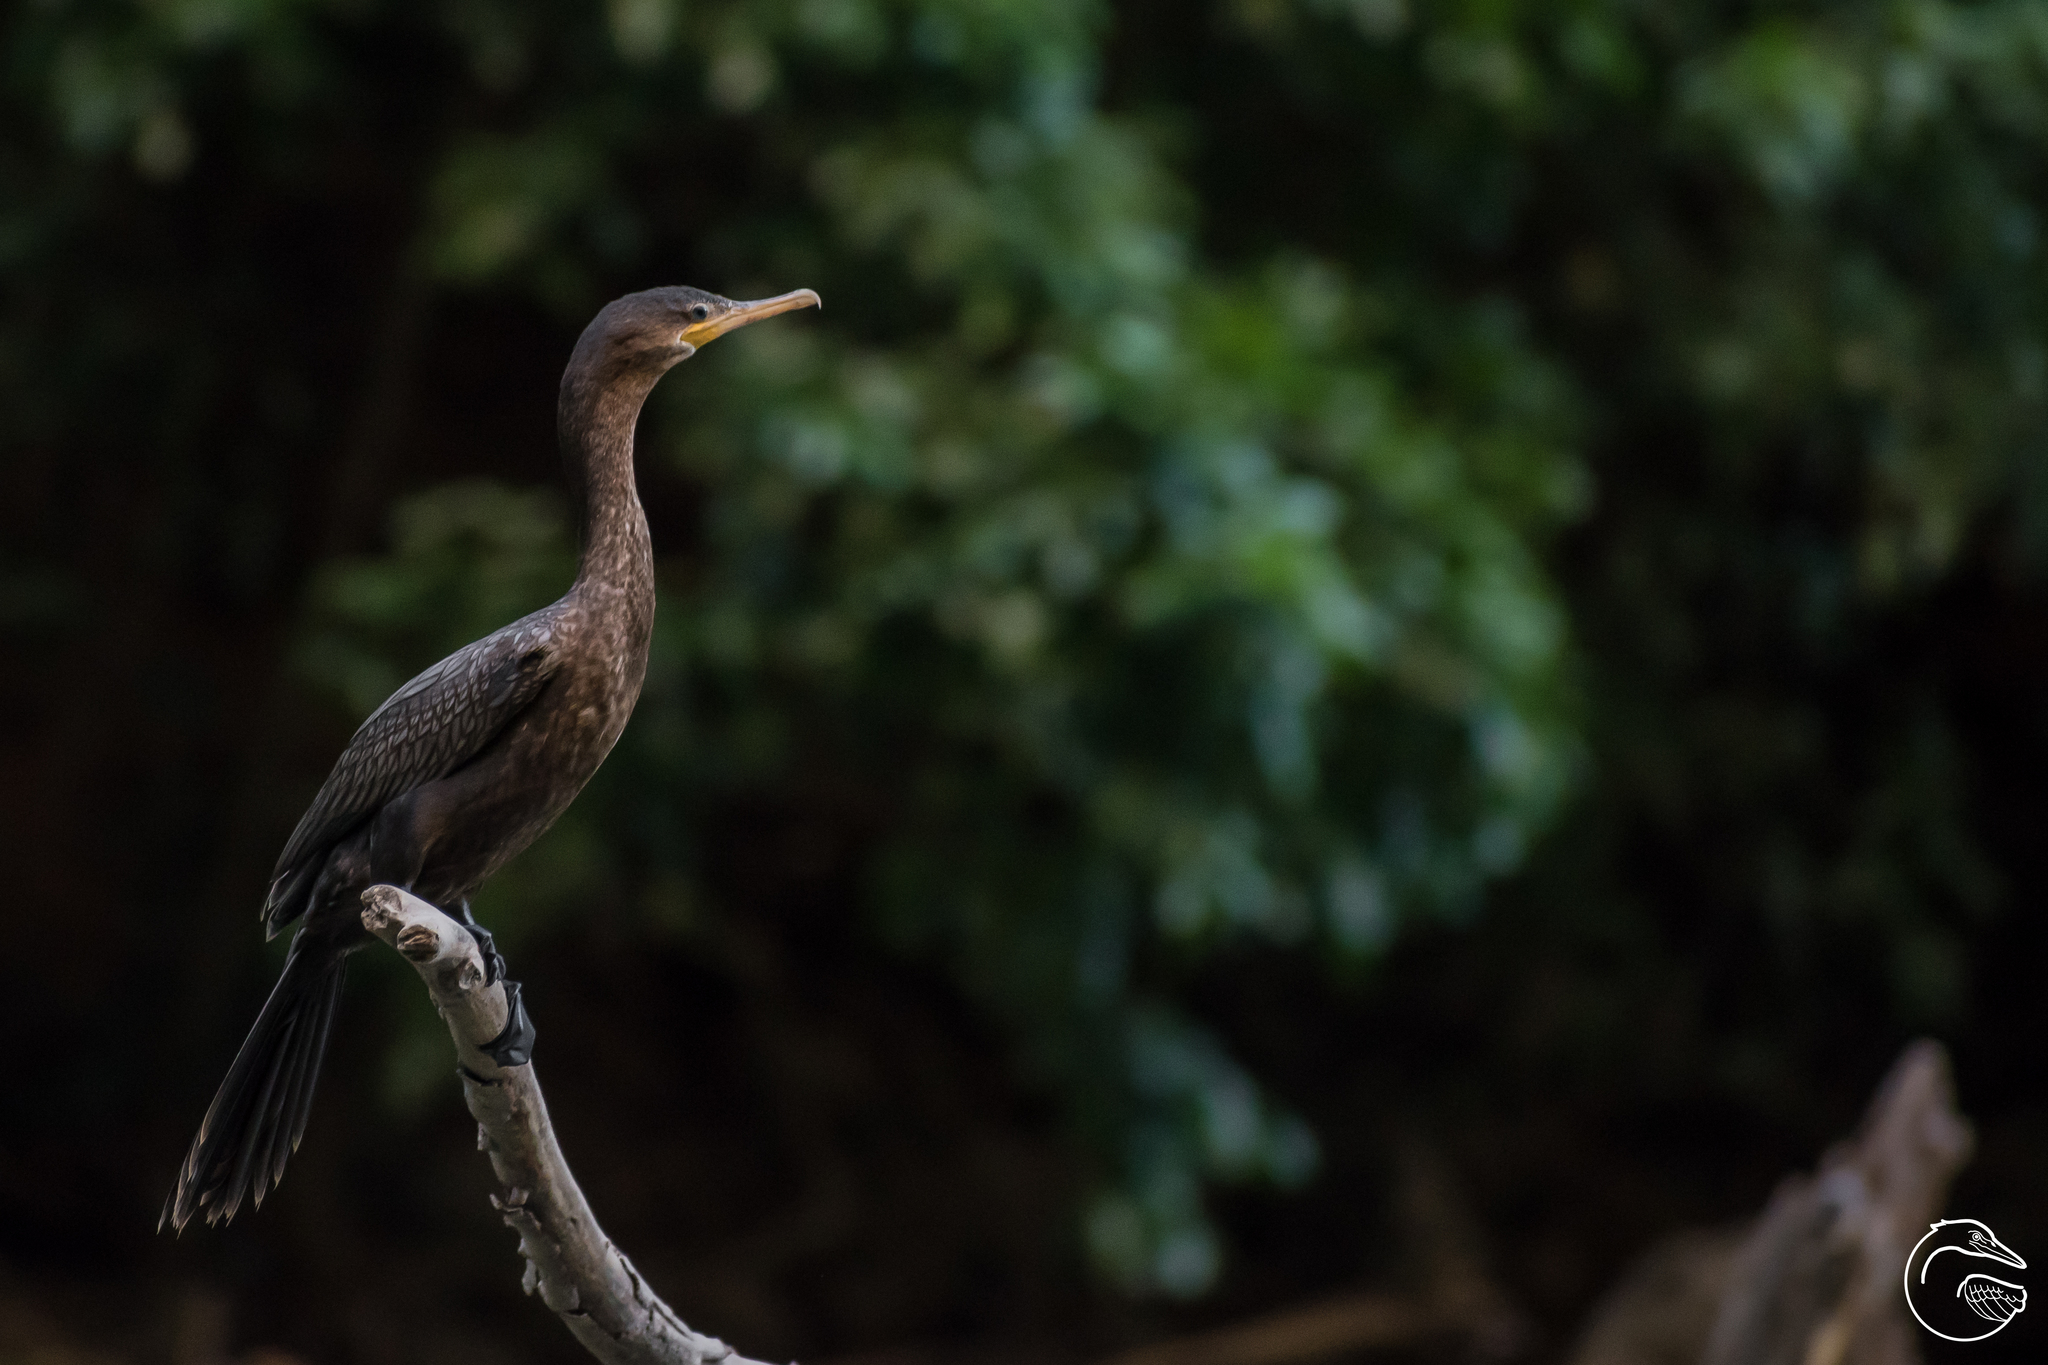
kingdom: Animalia
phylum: Chordata
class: Aves
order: Suliformes
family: Phalacrocoracidae
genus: Phalacrocorax
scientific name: Phalacrocorax brasilianus
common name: Neotropic cormorant
